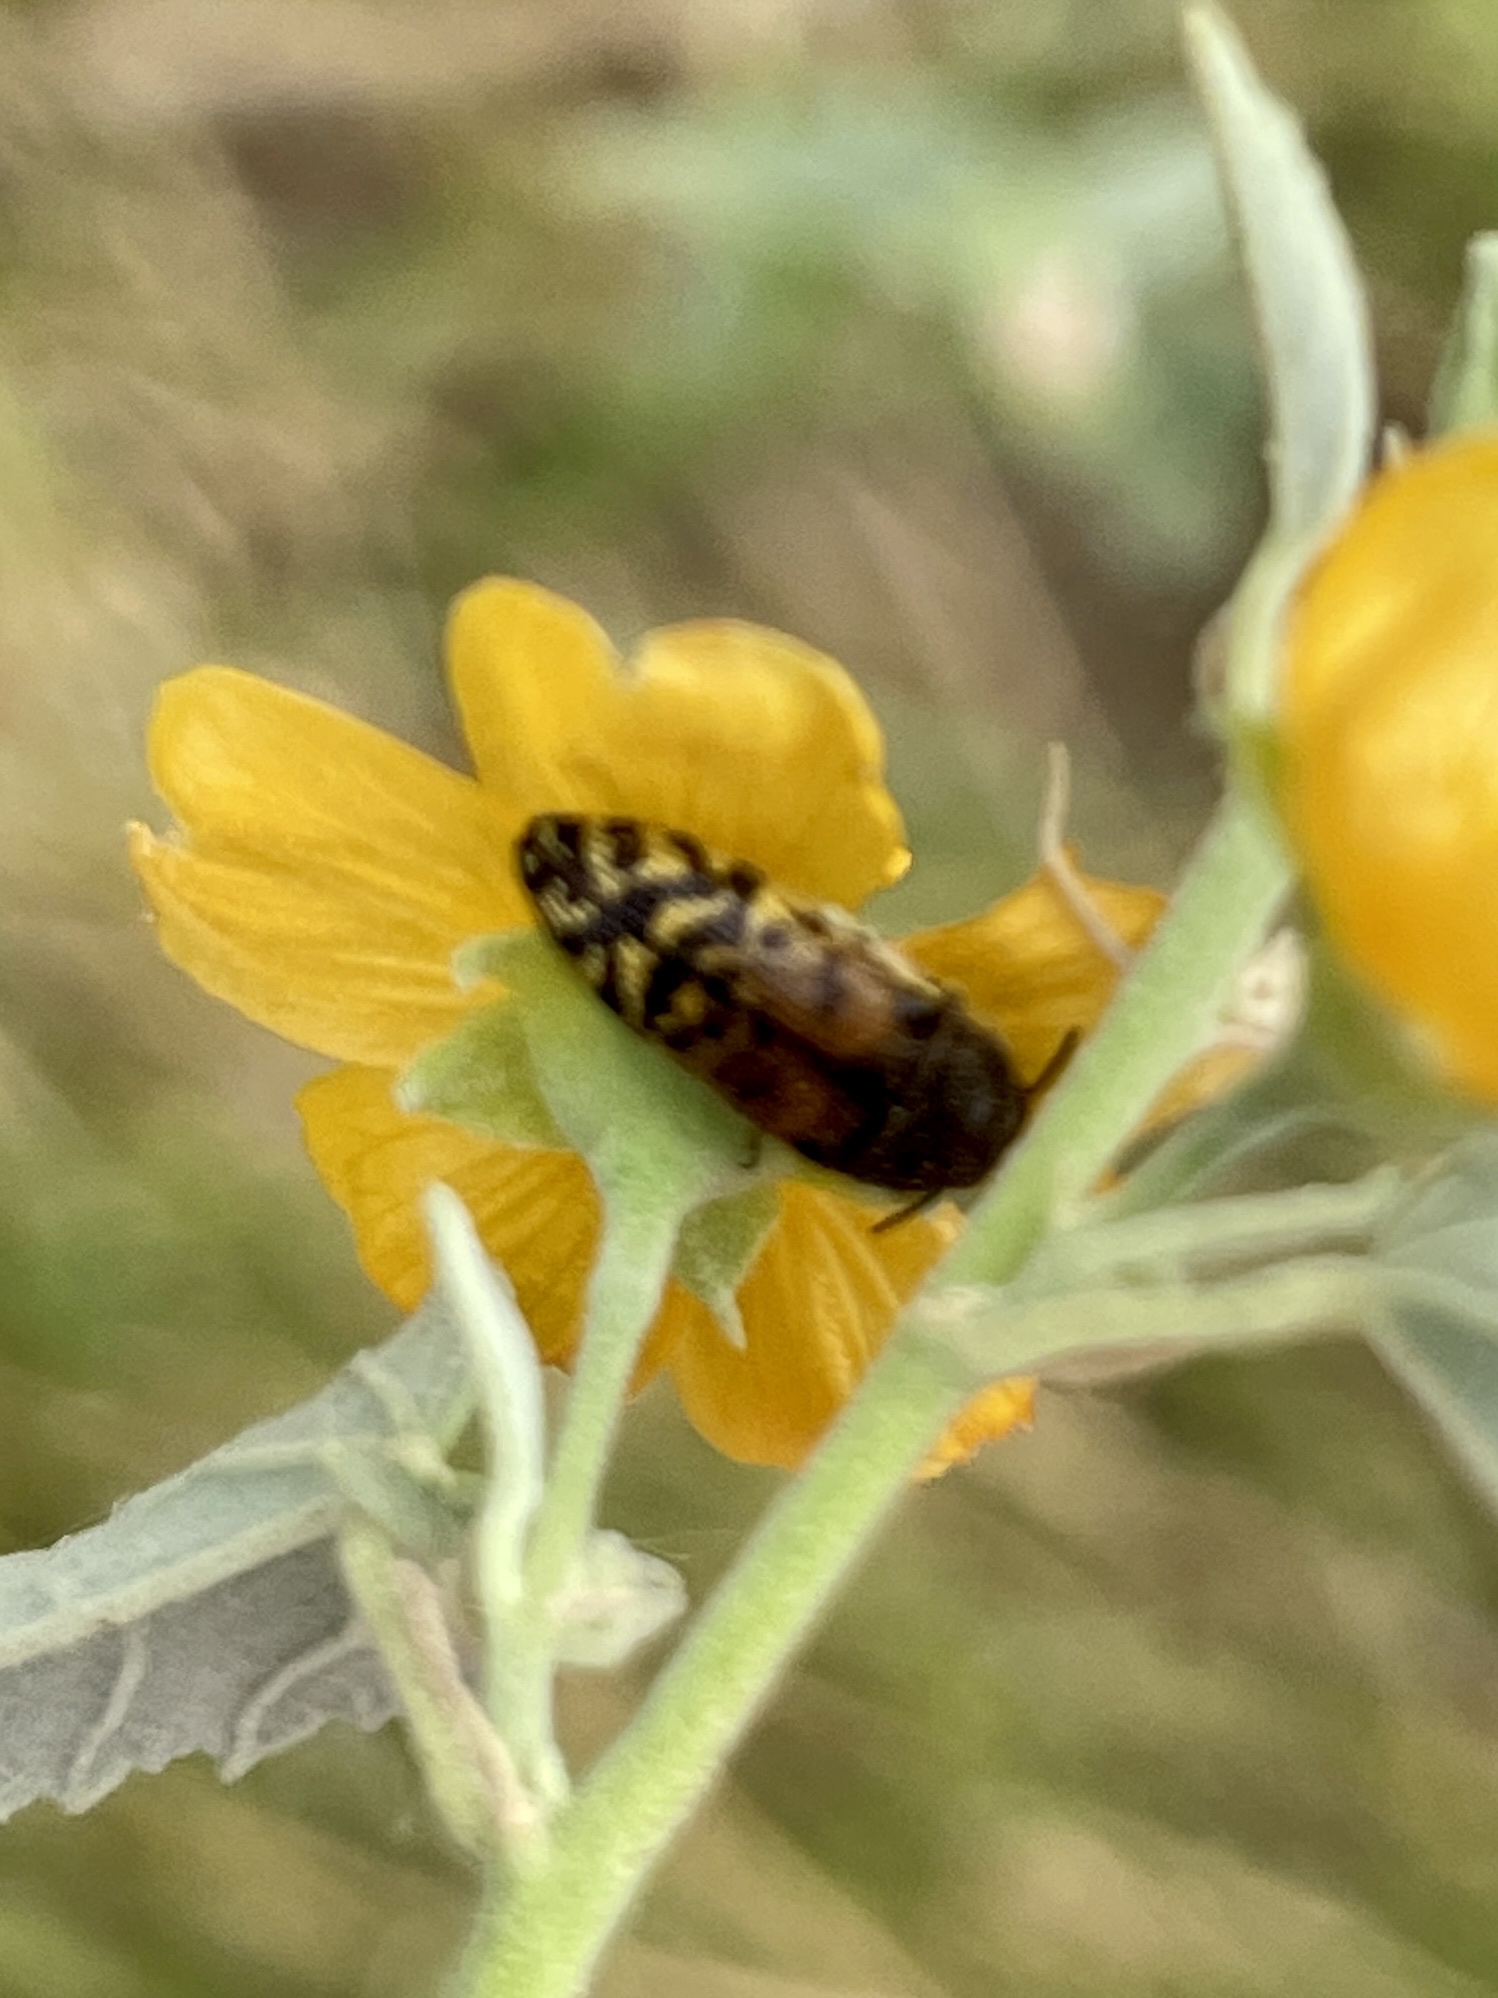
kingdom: Animalia
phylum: Arthropoda
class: Insecta
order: Coleoptera
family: Buprestidae
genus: Acmaeodera
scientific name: Acmaeodera mixta
